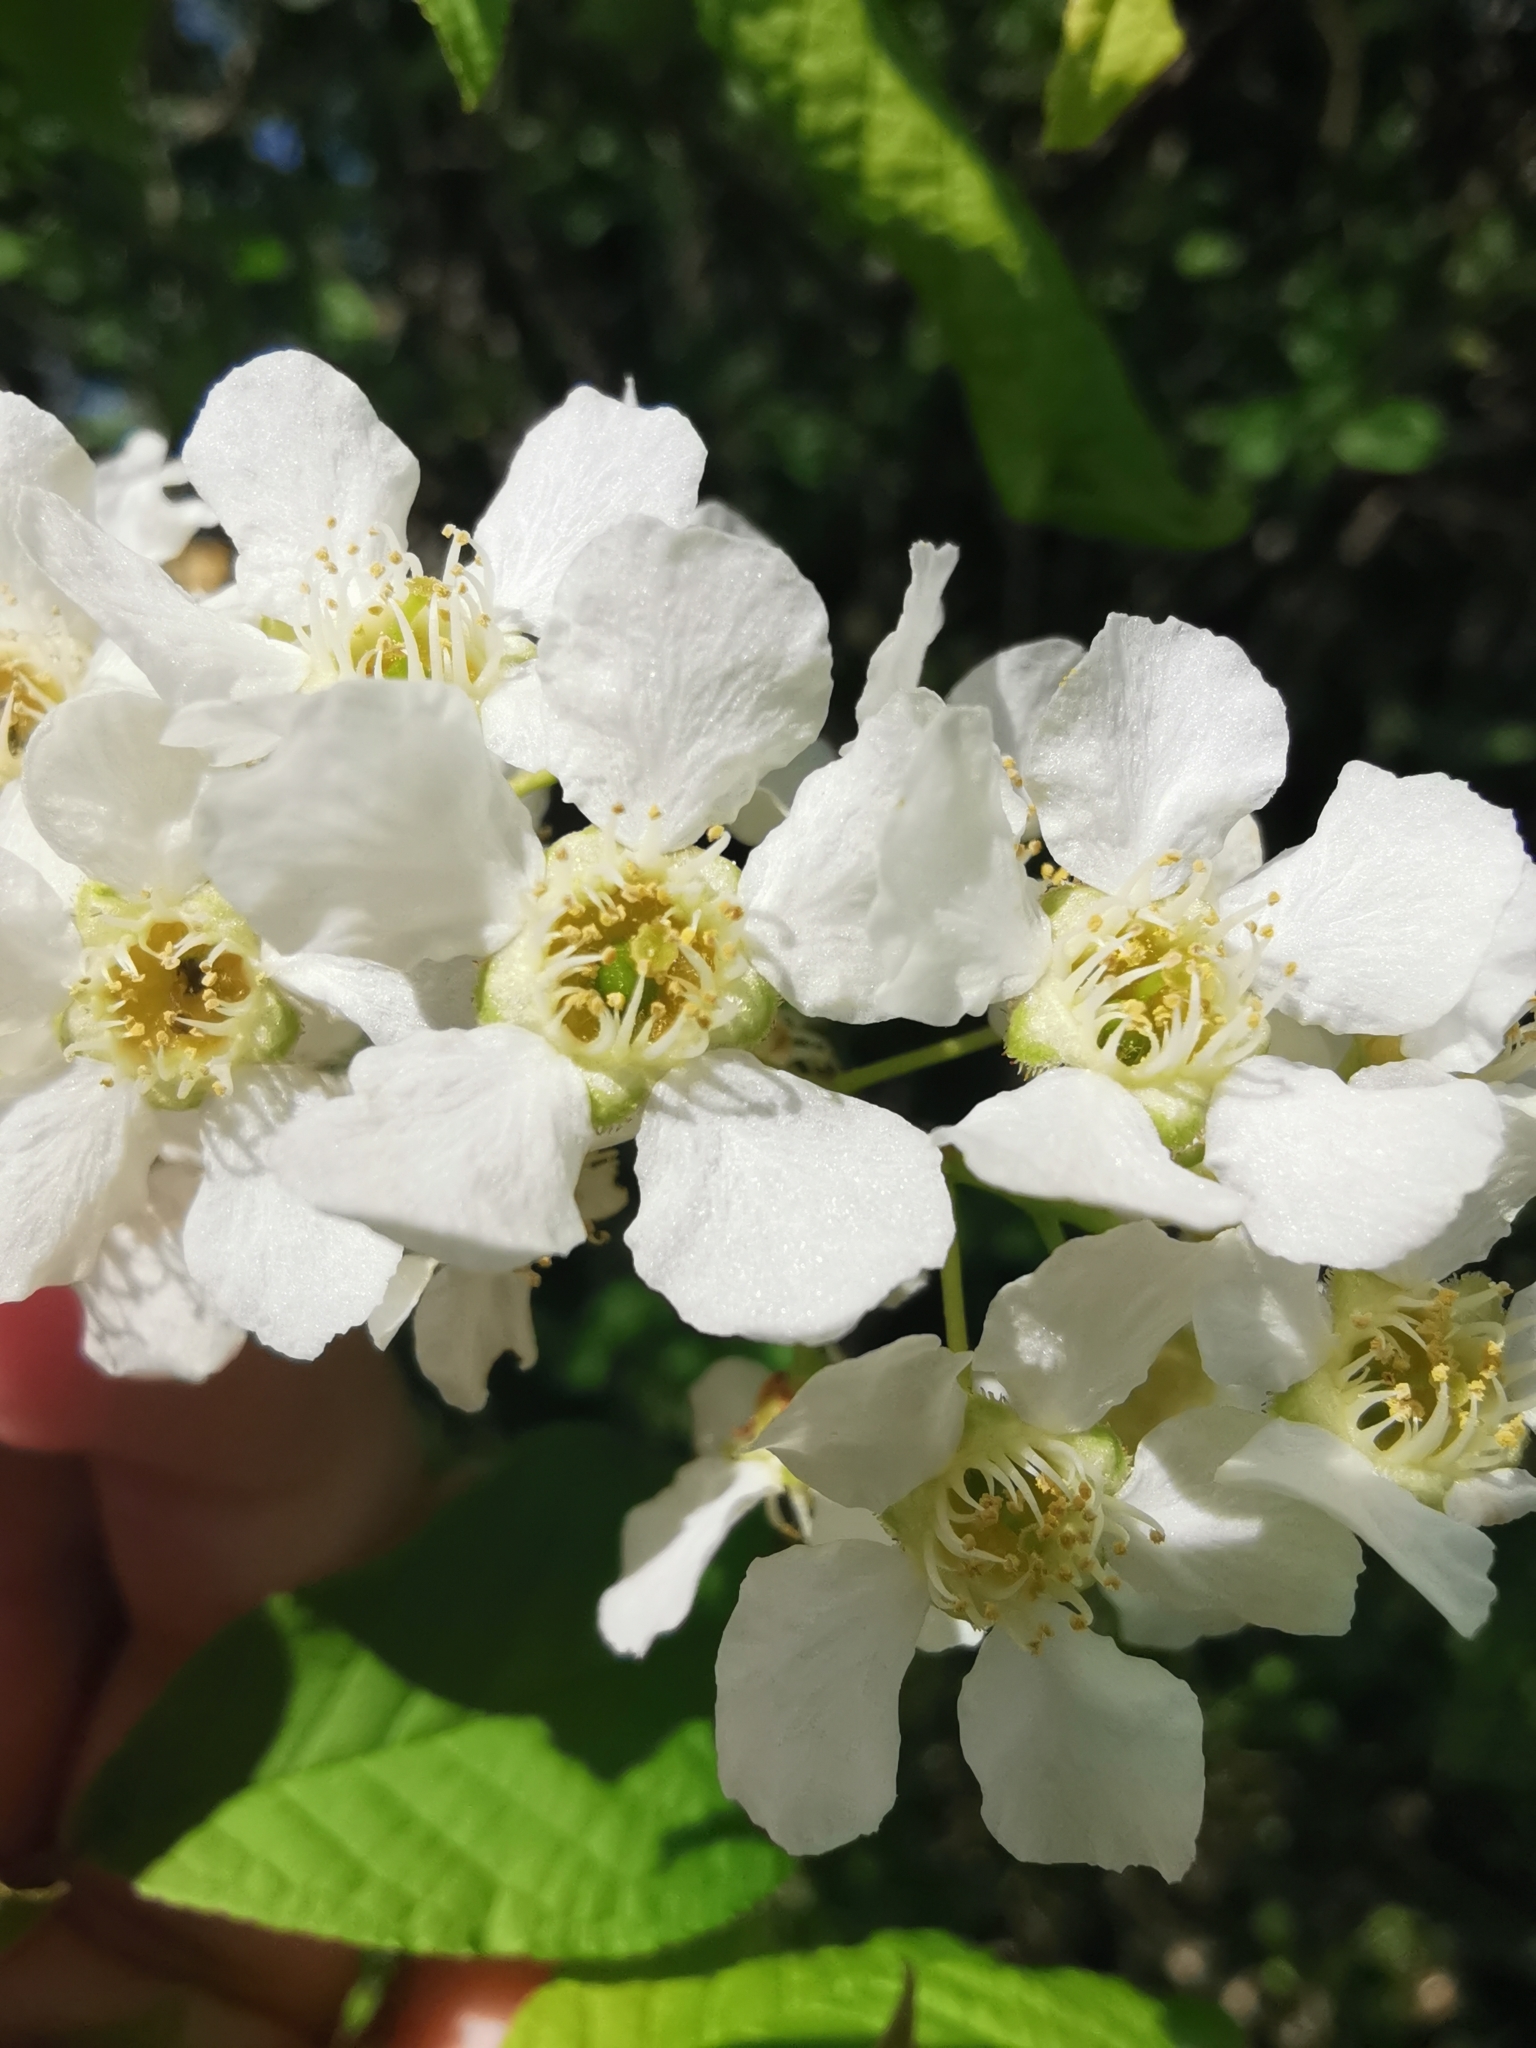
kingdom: Plantae
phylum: Tracheophyta
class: Magnoliopsida
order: Rosales
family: Rosaceae
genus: Prunus
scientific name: Prunus padus
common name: Bird cherry
